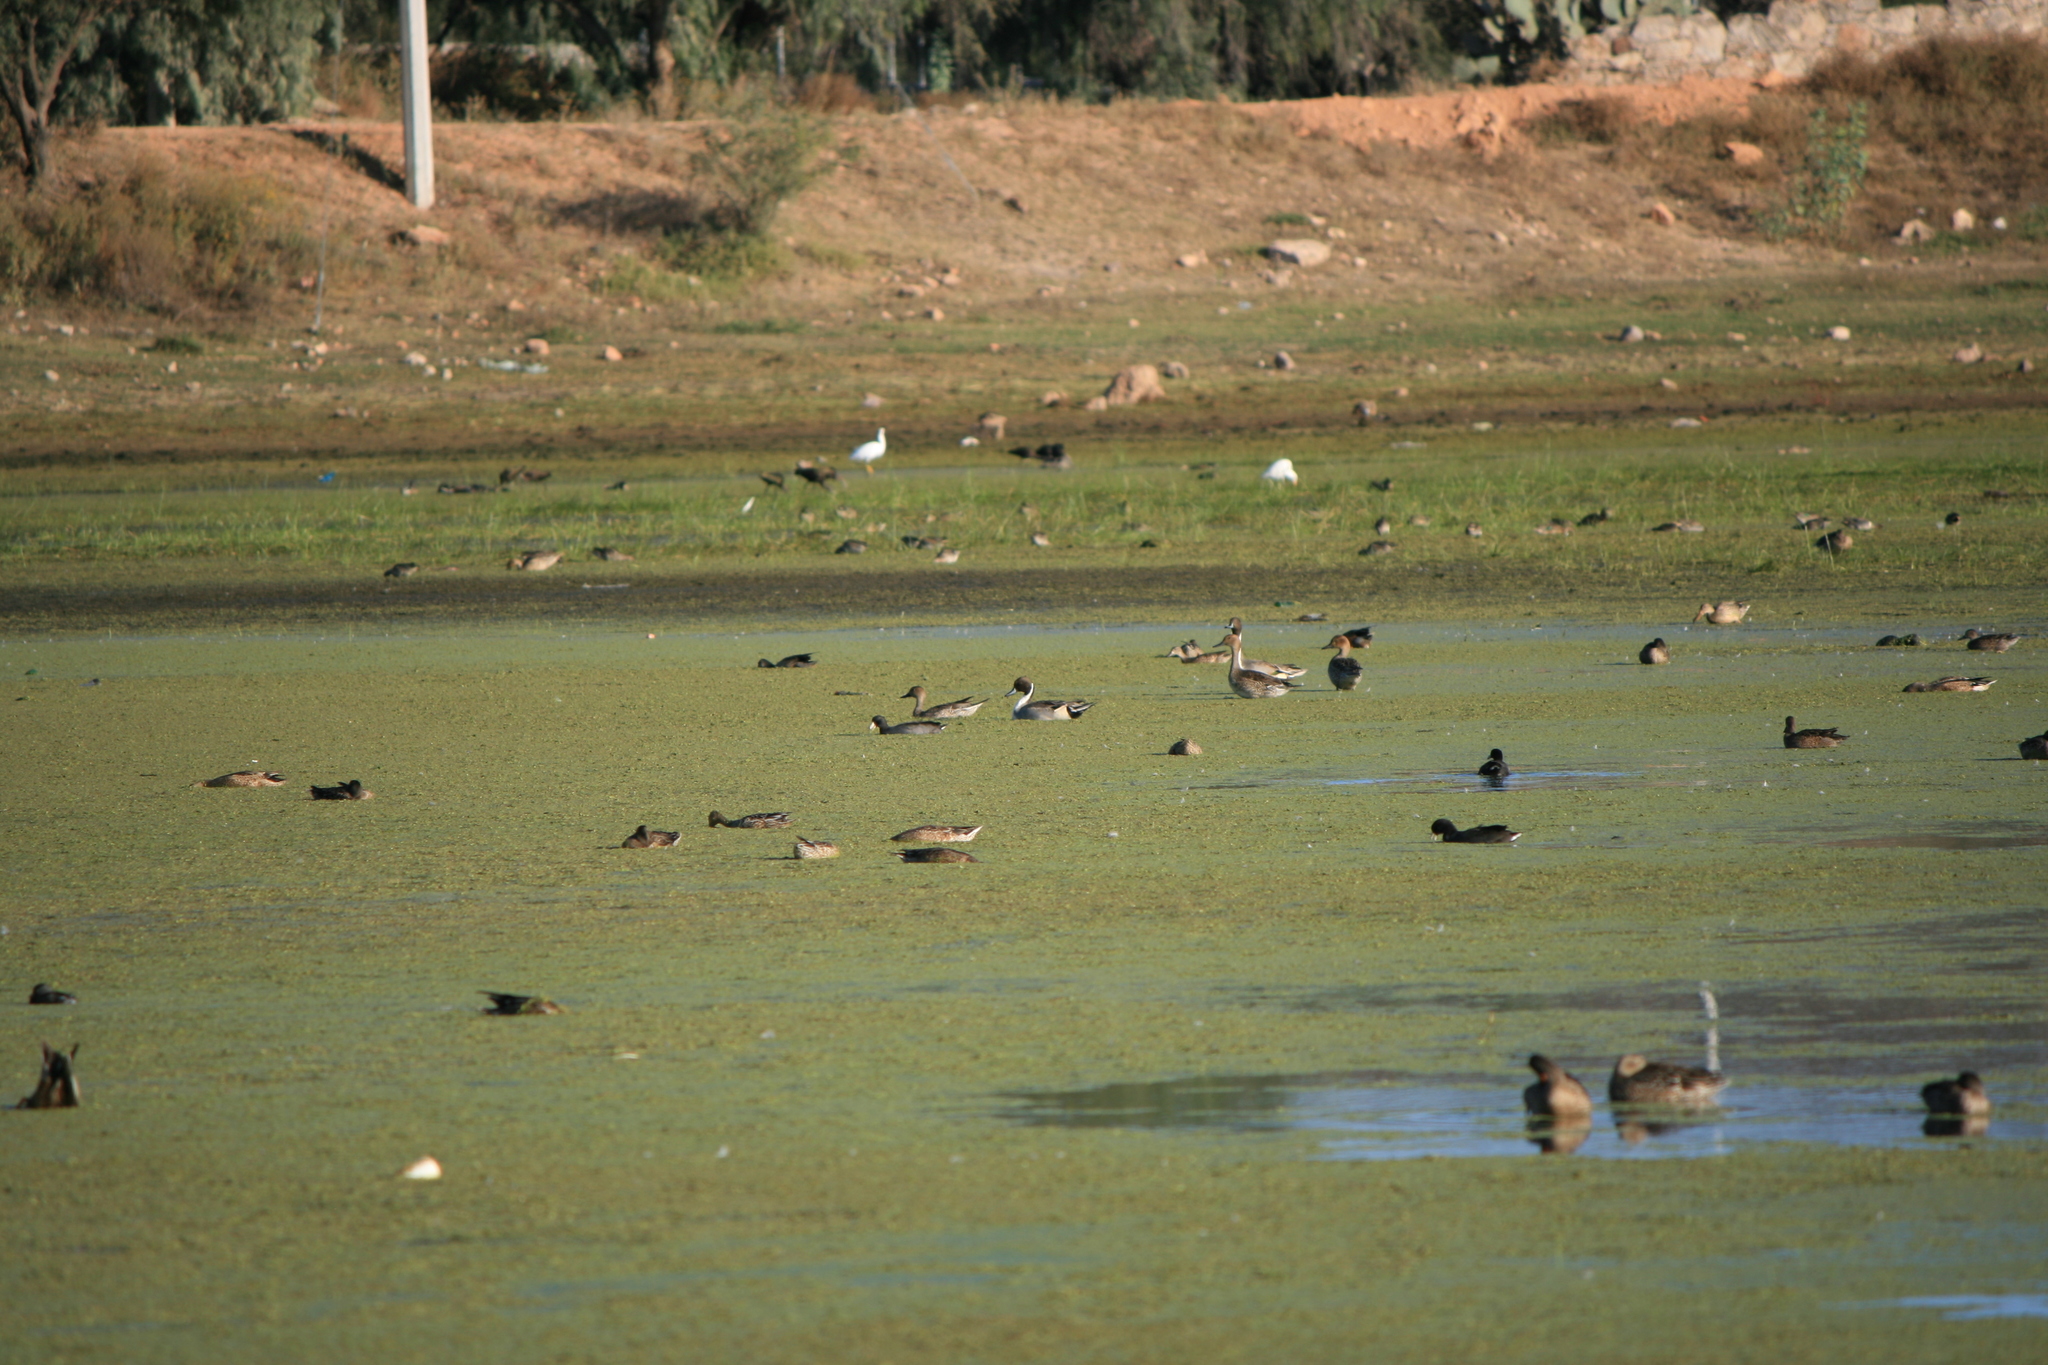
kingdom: Animalia
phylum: Chordata
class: Aves
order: Anseriformes
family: Anatidae
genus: Anas
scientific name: Anas acuta
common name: Northern pintail
